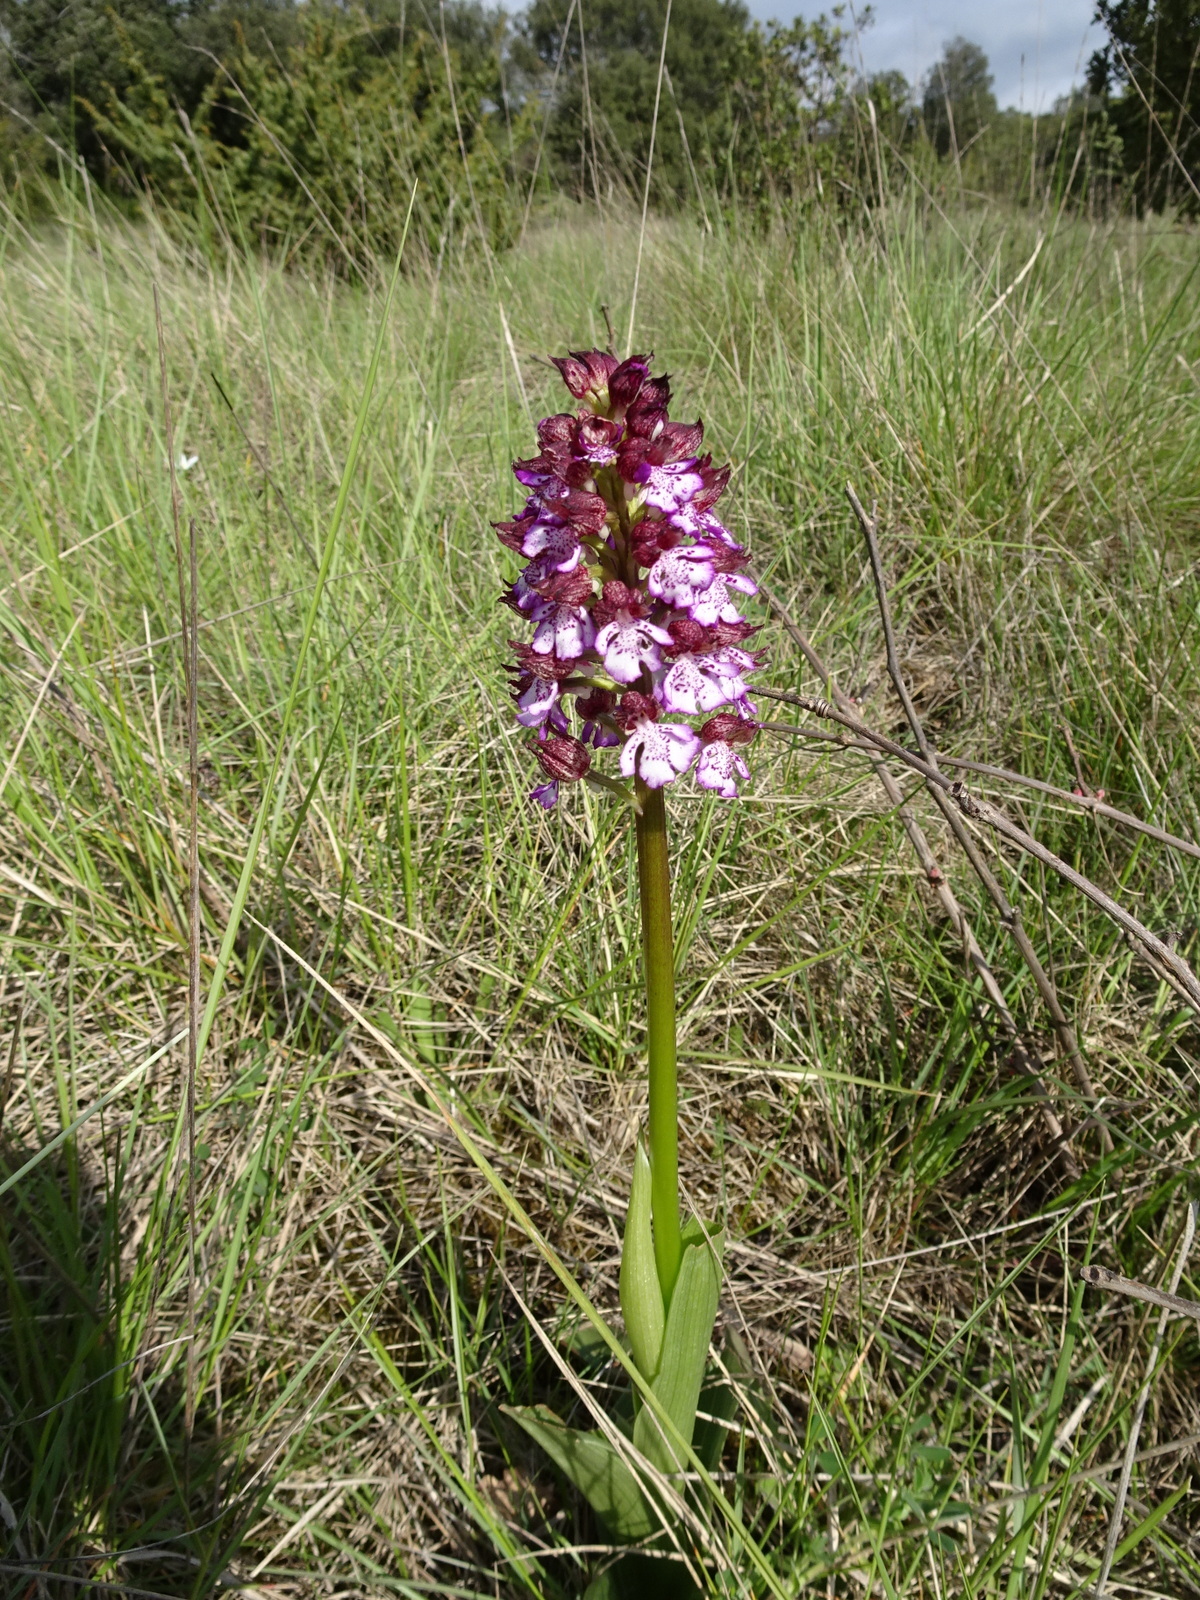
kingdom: Plantae
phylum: Tracheophyta
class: Liliopsida
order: Asparagales
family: Orchidaceae
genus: Orchis
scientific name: Orchis purpurea
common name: Lady orchid
